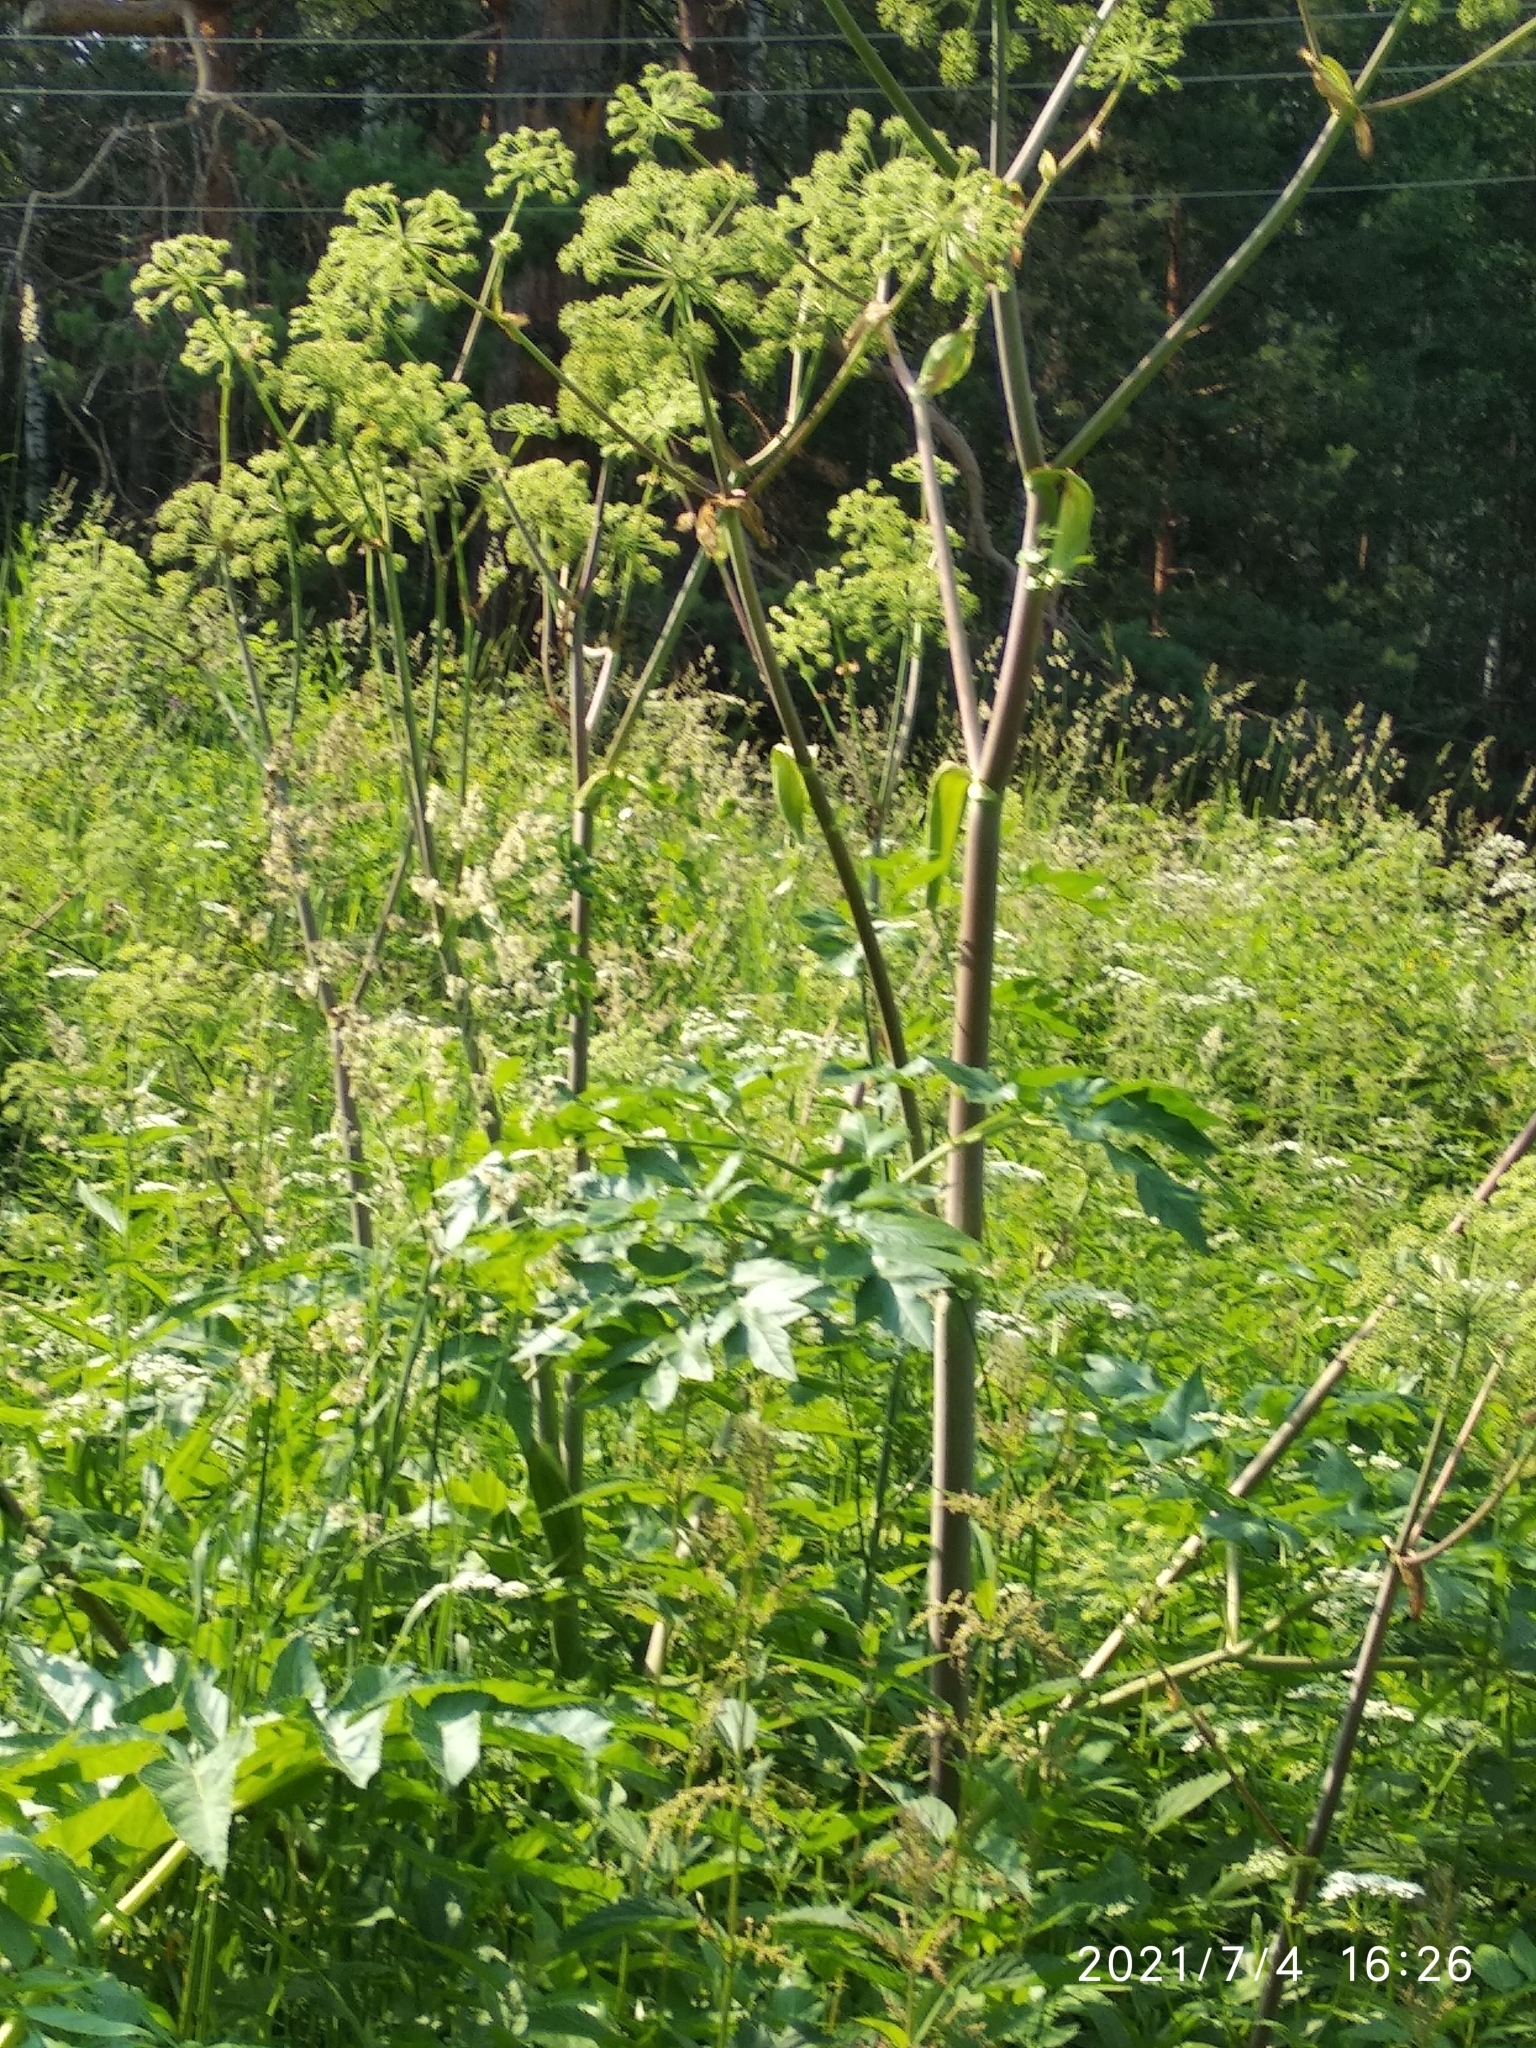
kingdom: Plantae
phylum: Tracheophyta
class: Magnoliopsida
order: Apiales
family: Apiaceae
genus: Angelica
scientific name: Angelica decurrens
